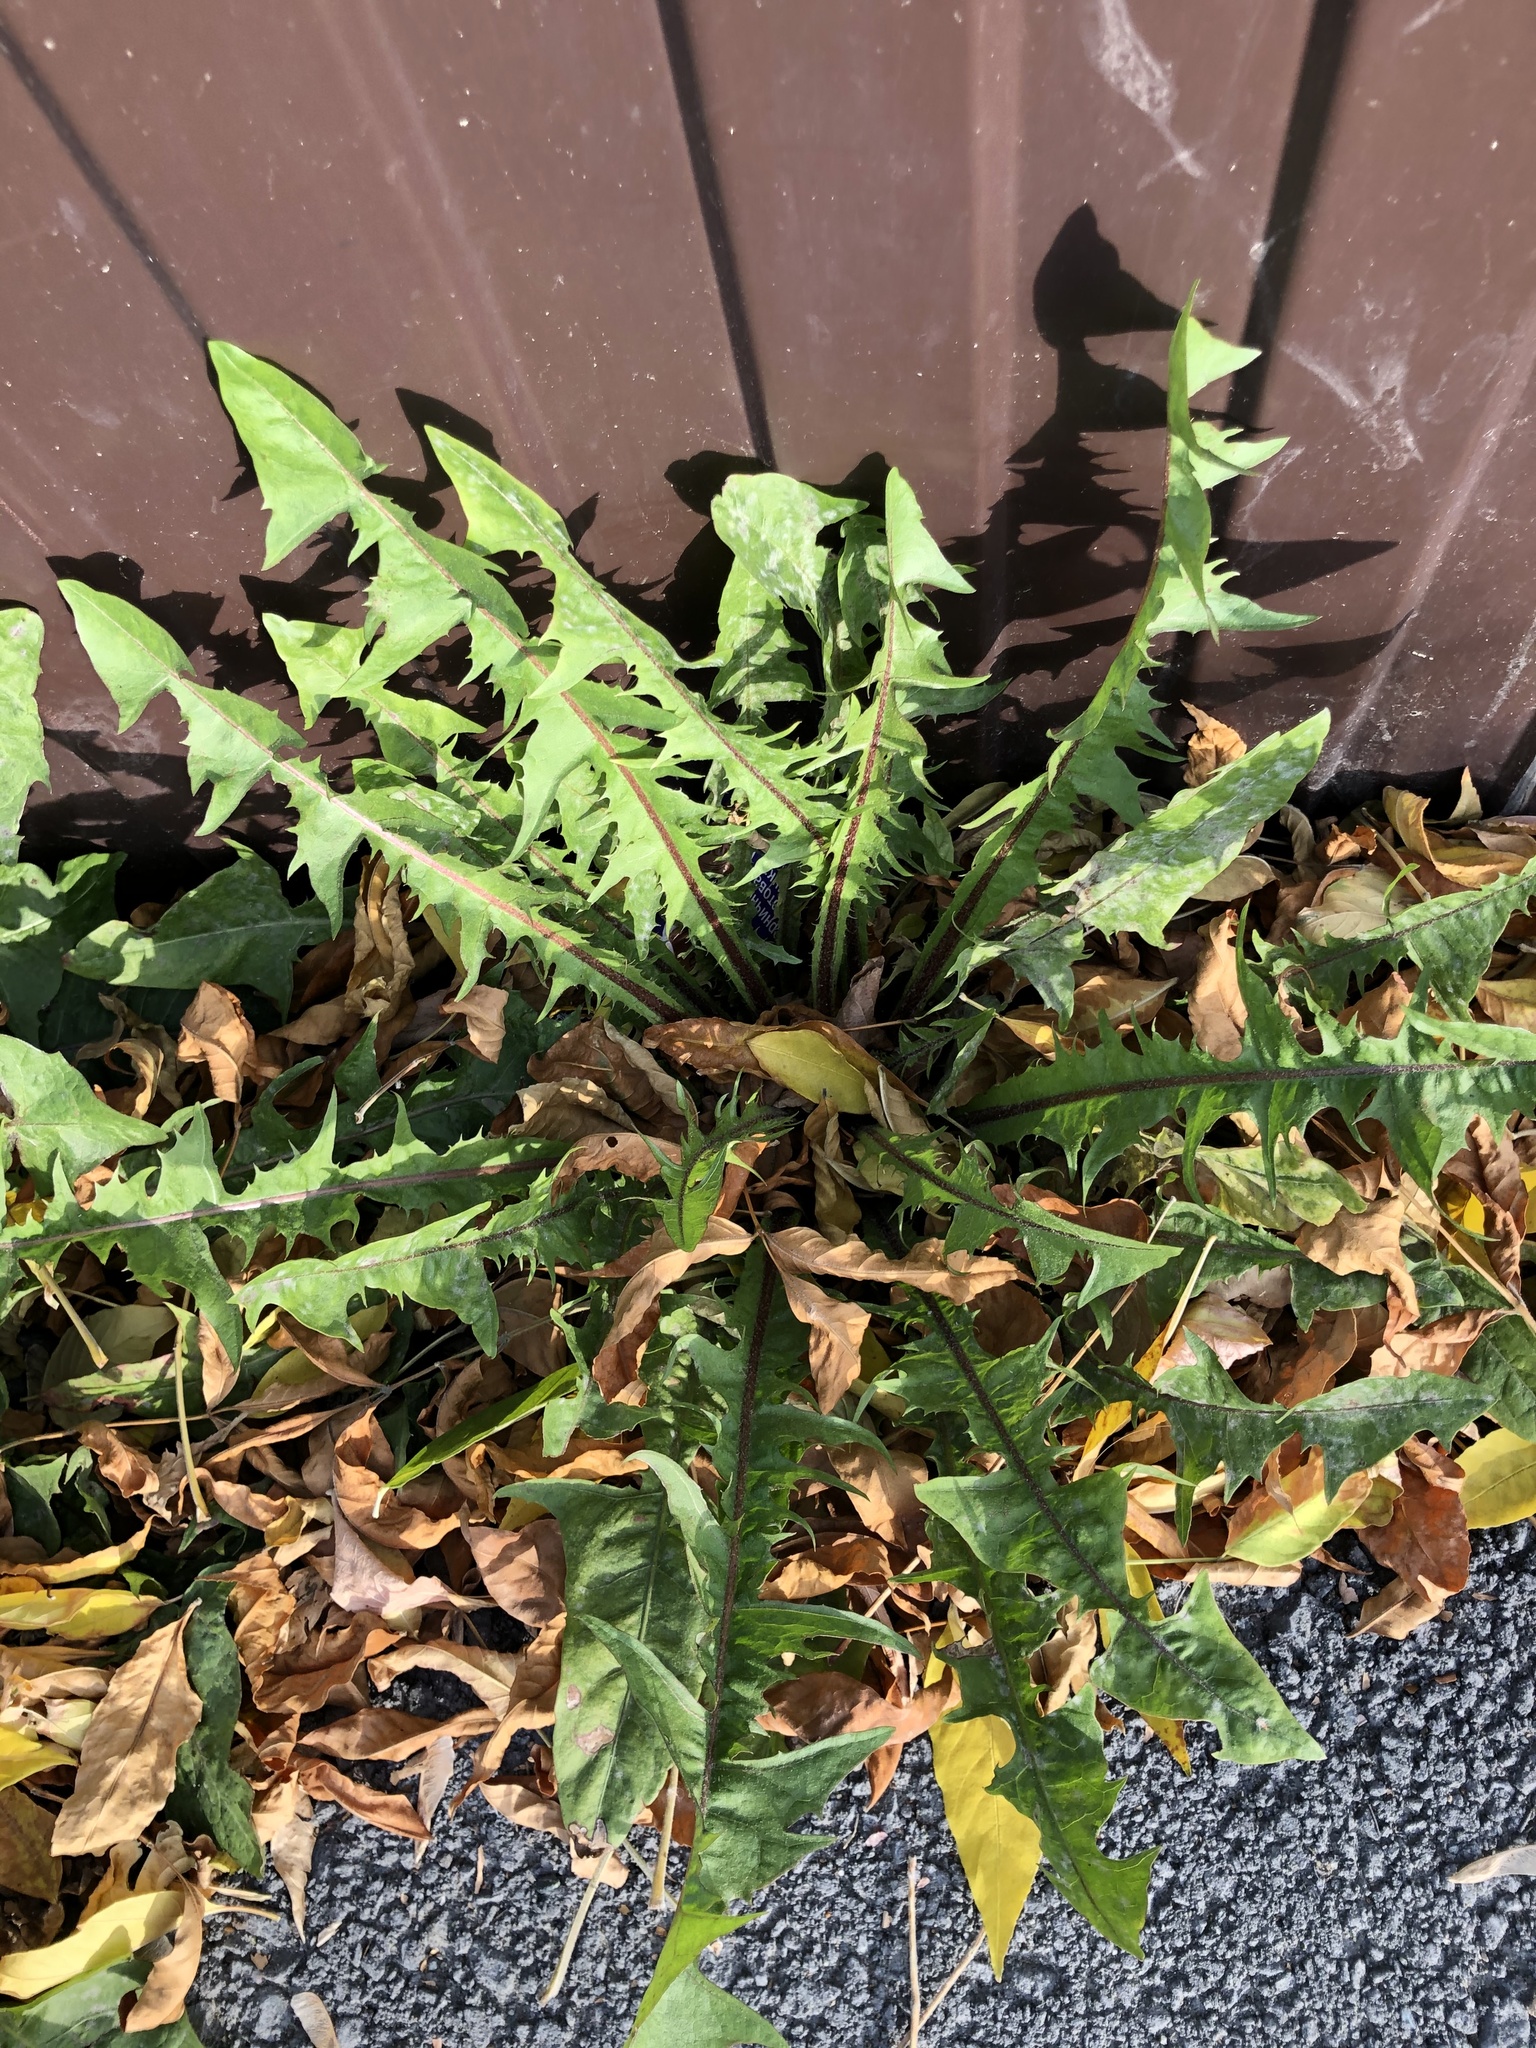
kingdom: Plantae
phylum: Tracheophyta
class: Magnoliopsida
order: Asterales
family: Asteraceae
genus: Taraxacum
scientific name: Taraxacum officinale
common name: Common dandelion
